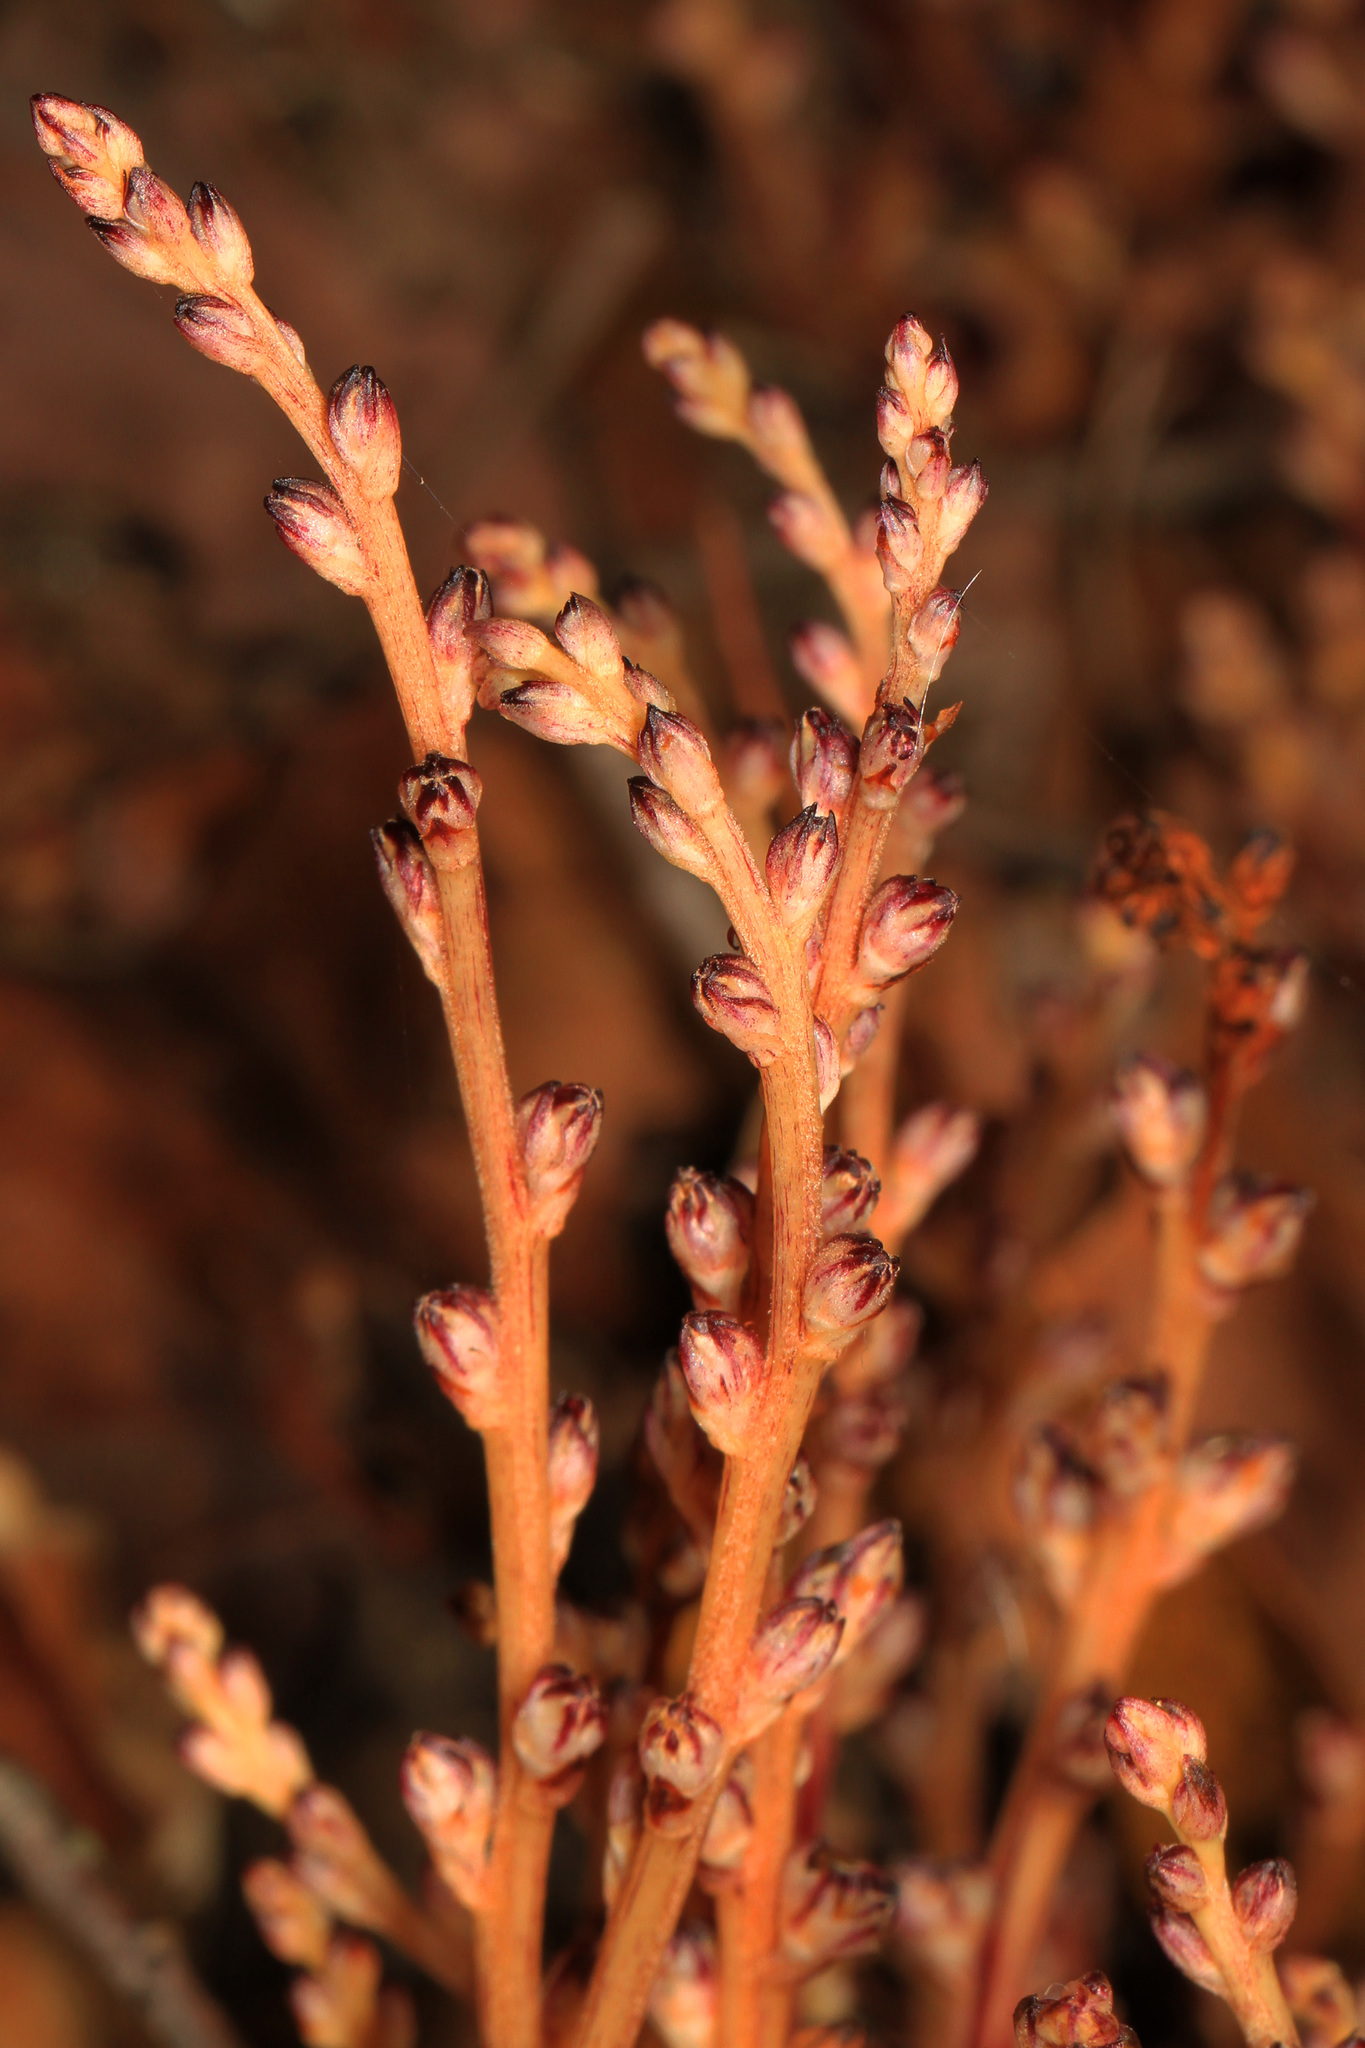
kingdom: Plantae
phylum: Tracheophyta
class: Magnoliopsida
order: Lamiales
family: Orobanchaceae
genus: Epifagus
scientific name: Epifagus virginiana
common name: Beechdrops
